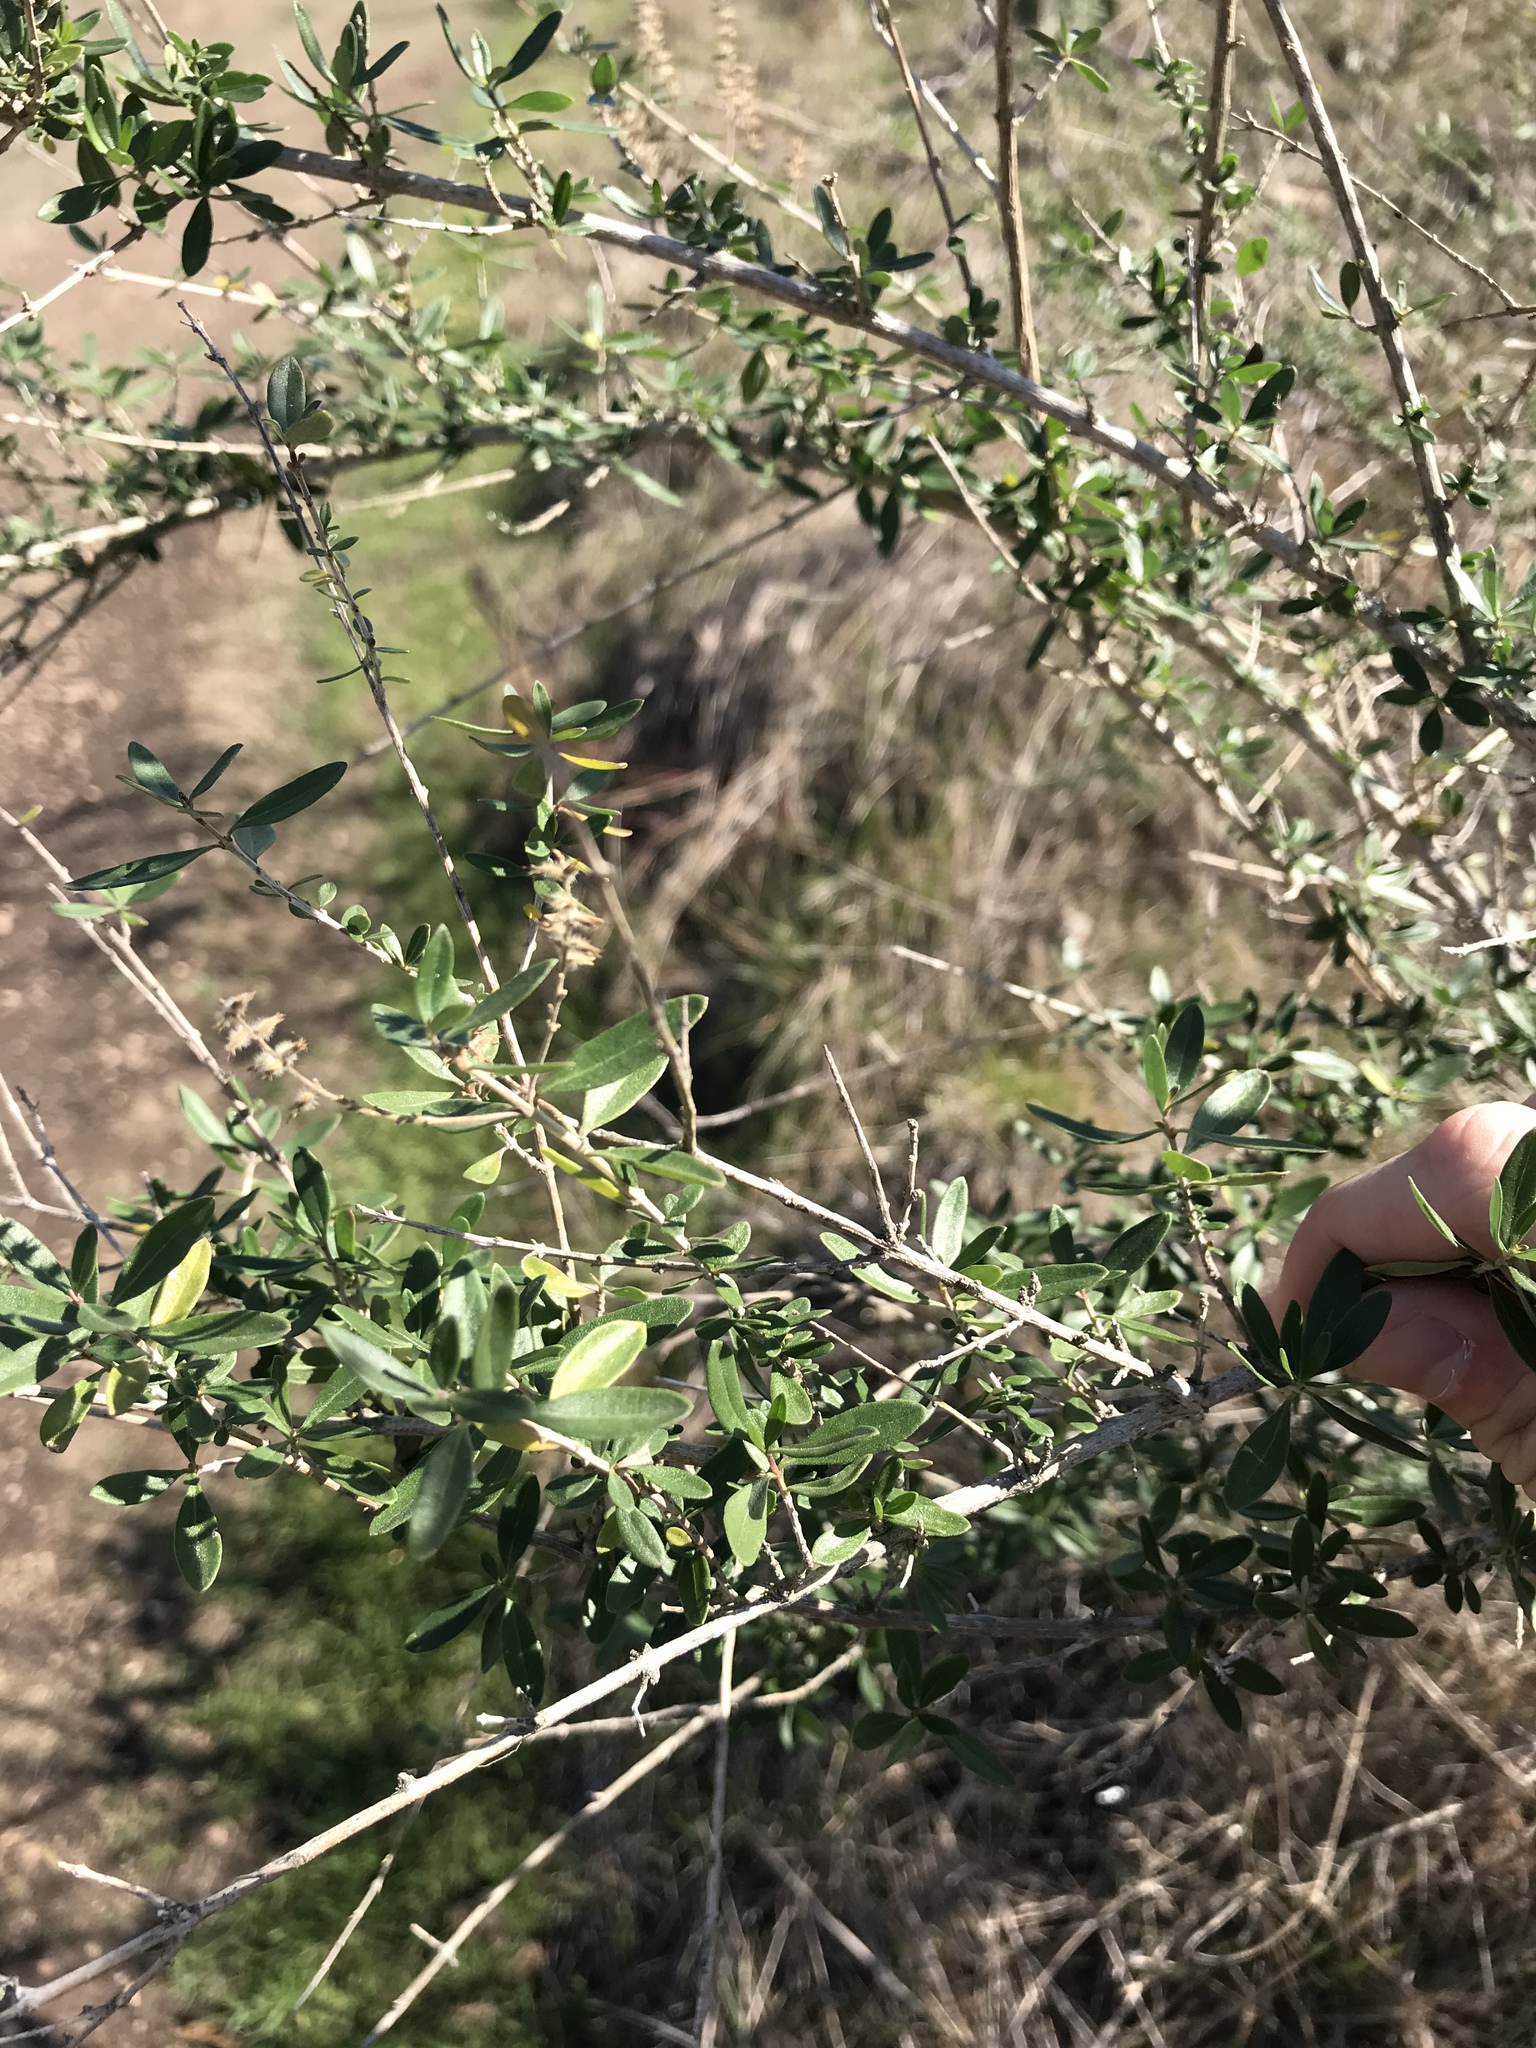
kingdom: Plantae
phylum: Tracheophyta
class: Magnoliopsida
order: Lamiales
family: Verbenaceae
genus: Aloysia
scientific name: Aloysia gratissima
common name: Common bee-brush
